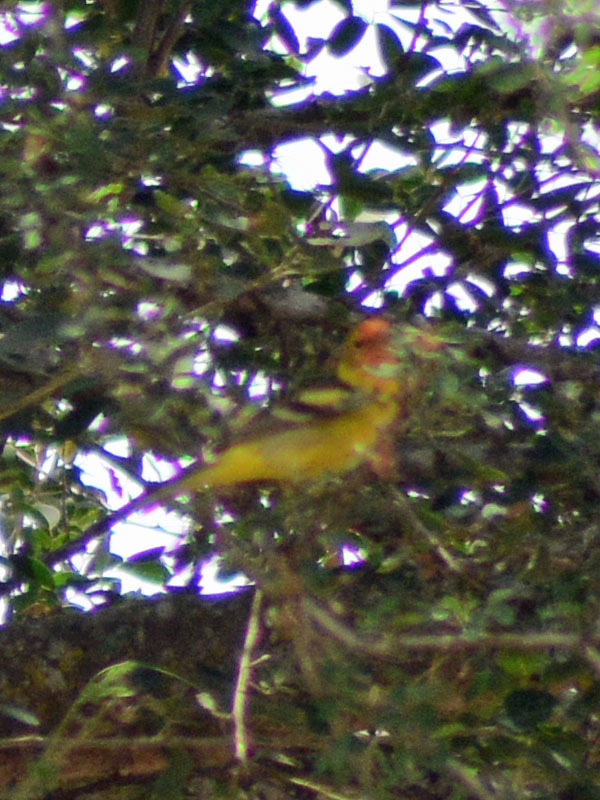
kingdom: Animalia
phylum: Chordata
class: Aves
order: Passeriformes
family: Cardinalidae
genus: Piranga
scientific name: Piranga ludoviciana
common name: Western tanager
